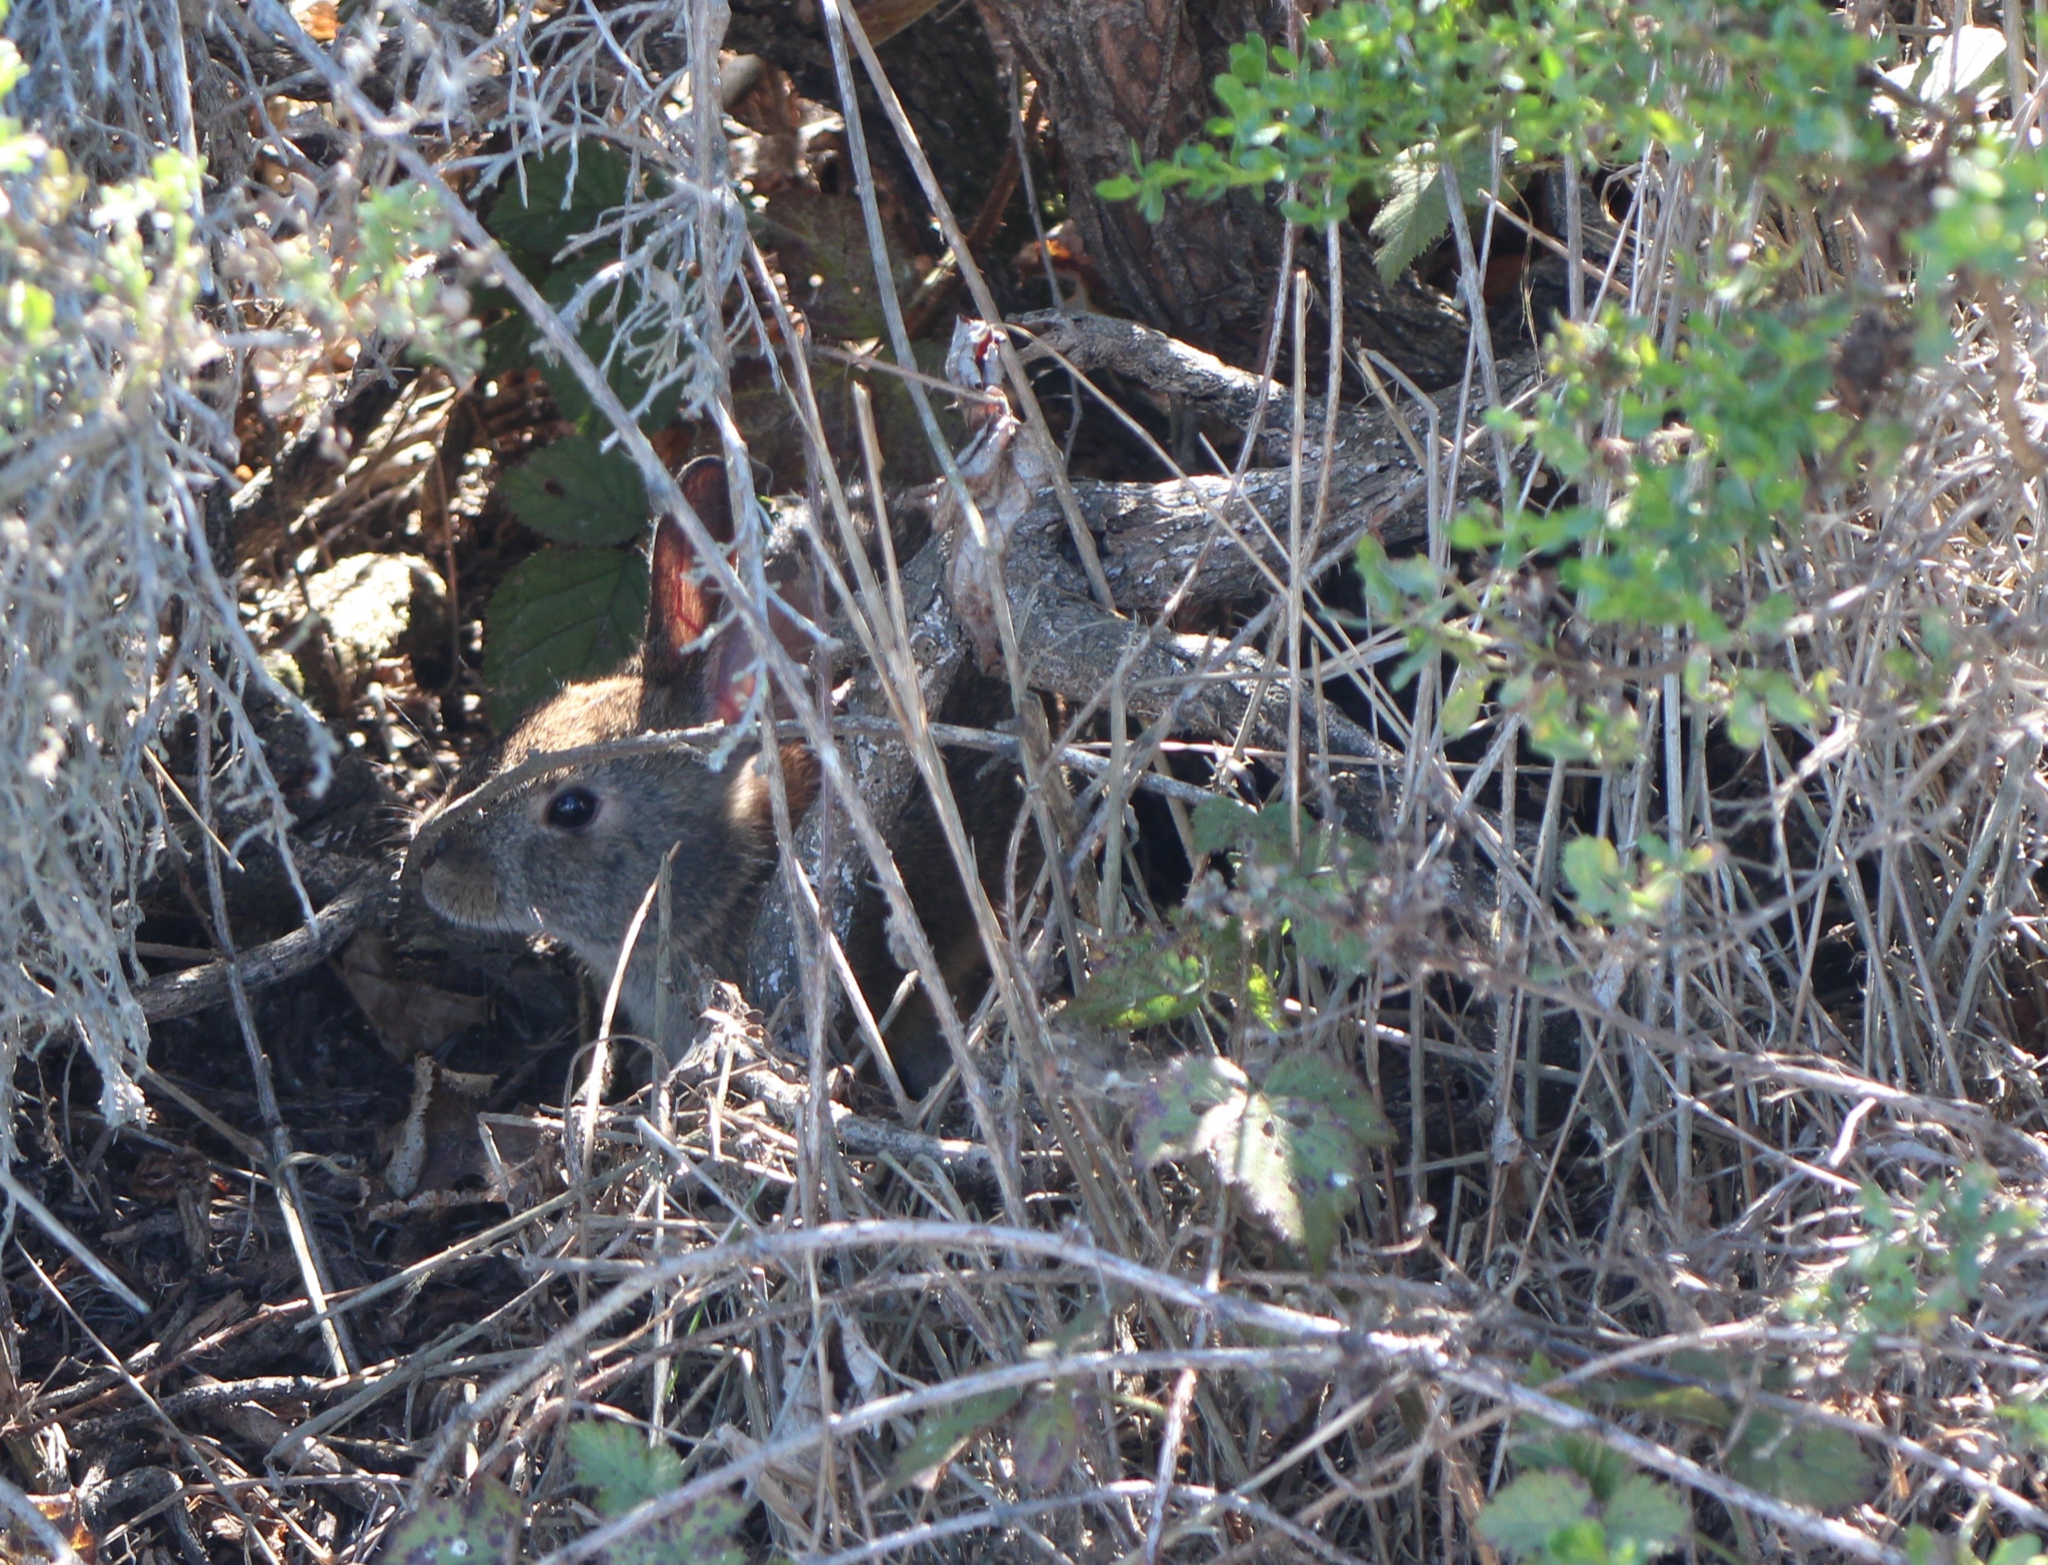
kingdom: Animalia
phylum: Chordata
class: Mammalia
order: Lagomorpha
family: Leporidae
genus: Sylvilagus
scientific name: Sylvilagus bachmani
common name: Brush rabbit
